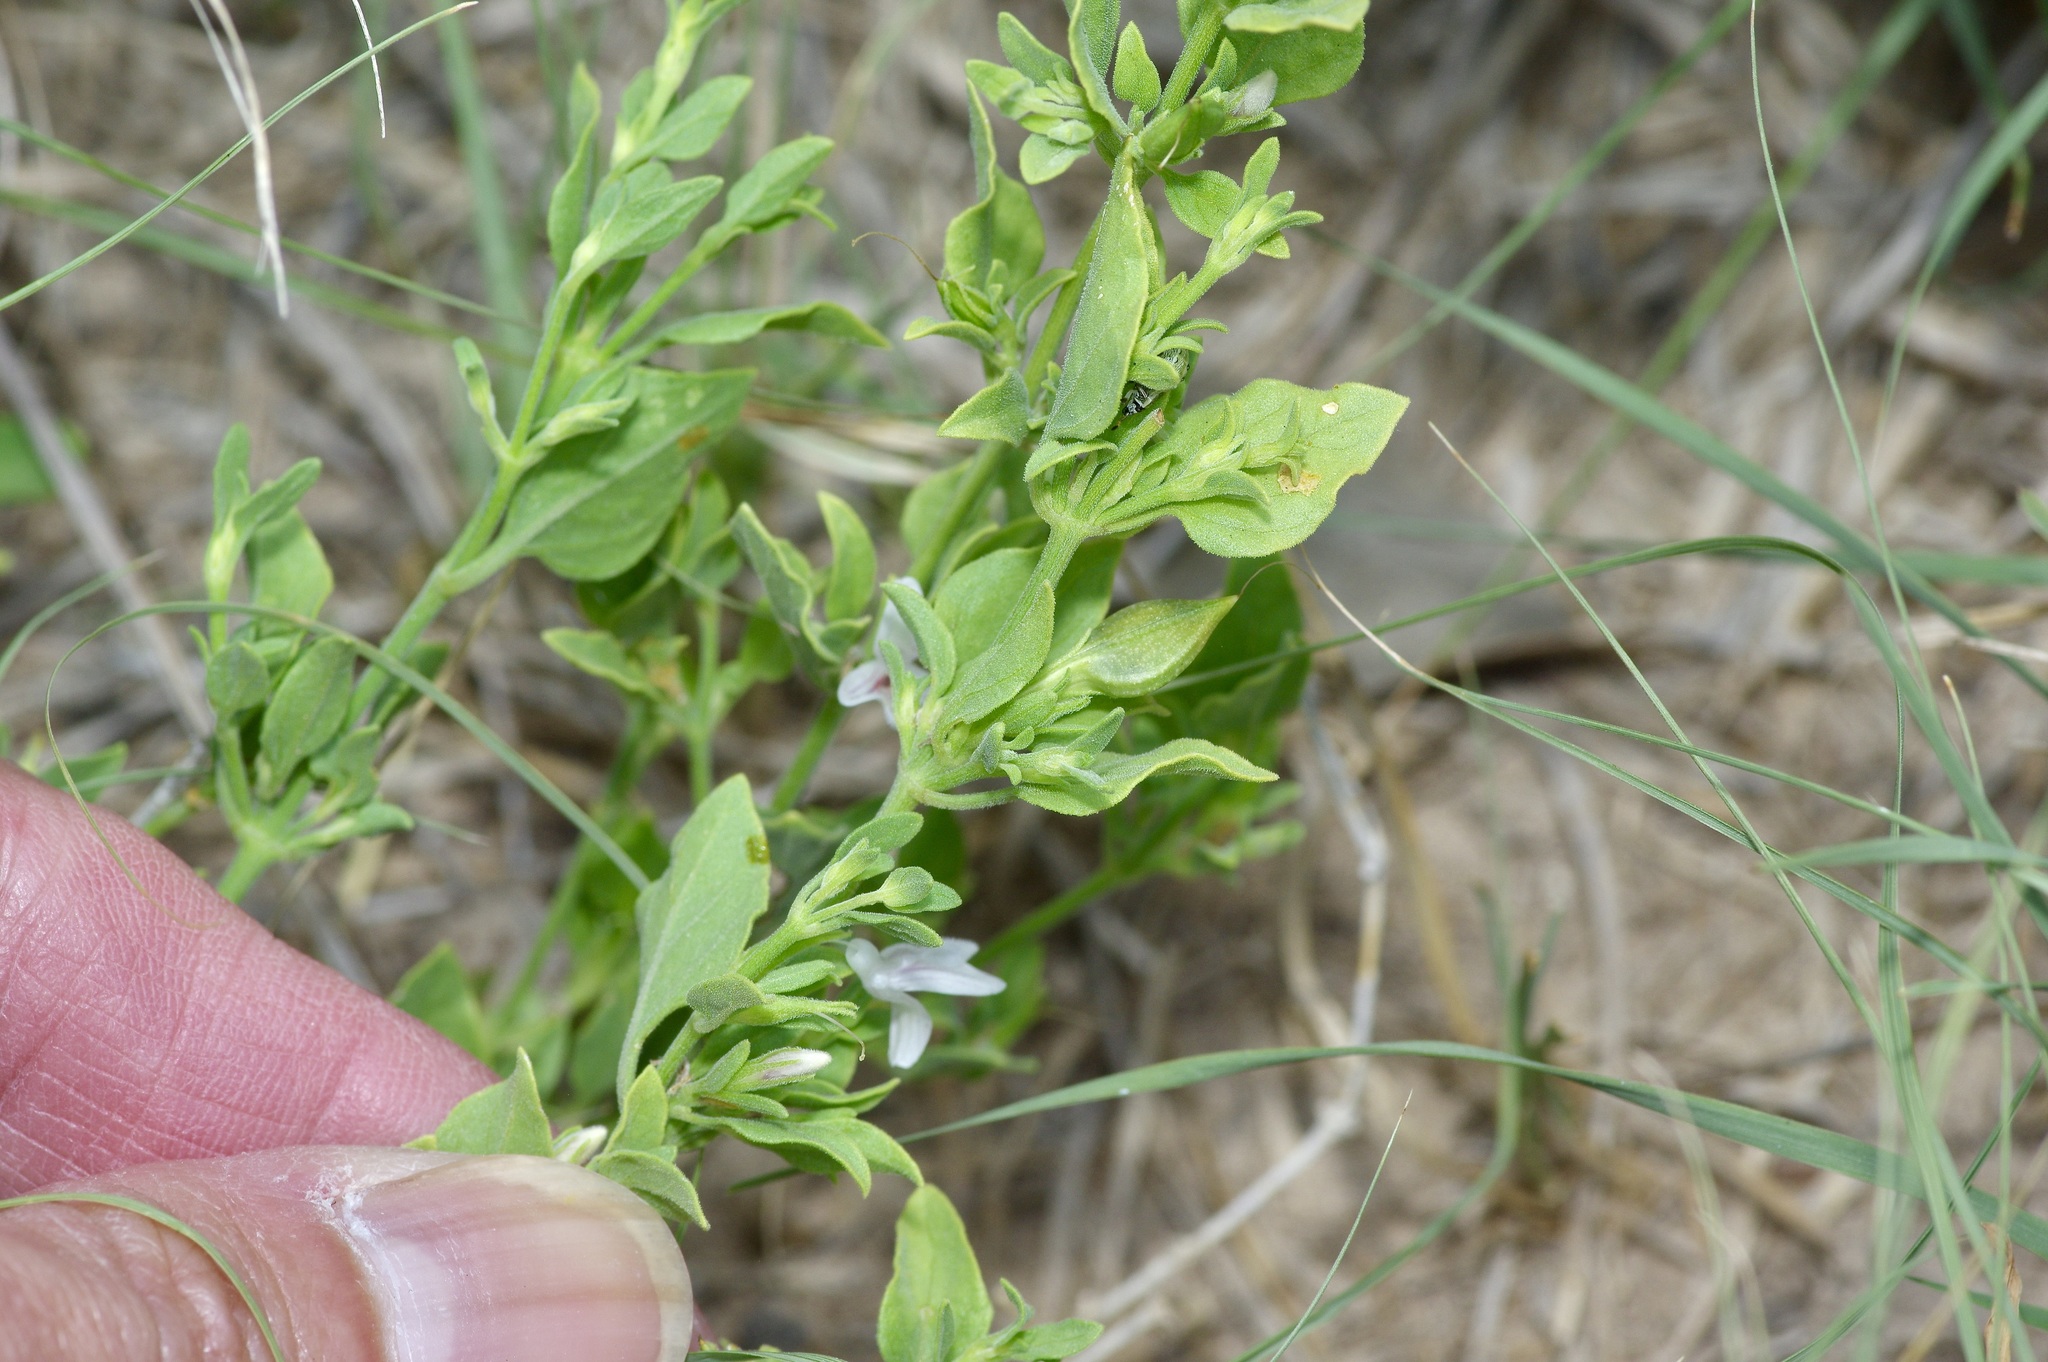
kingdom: Plantae
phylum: Tracheophyta
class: Magnoliopsida
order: Lamiales
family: Acanthaceae
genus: Justicia
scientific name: Justicia pilosella
